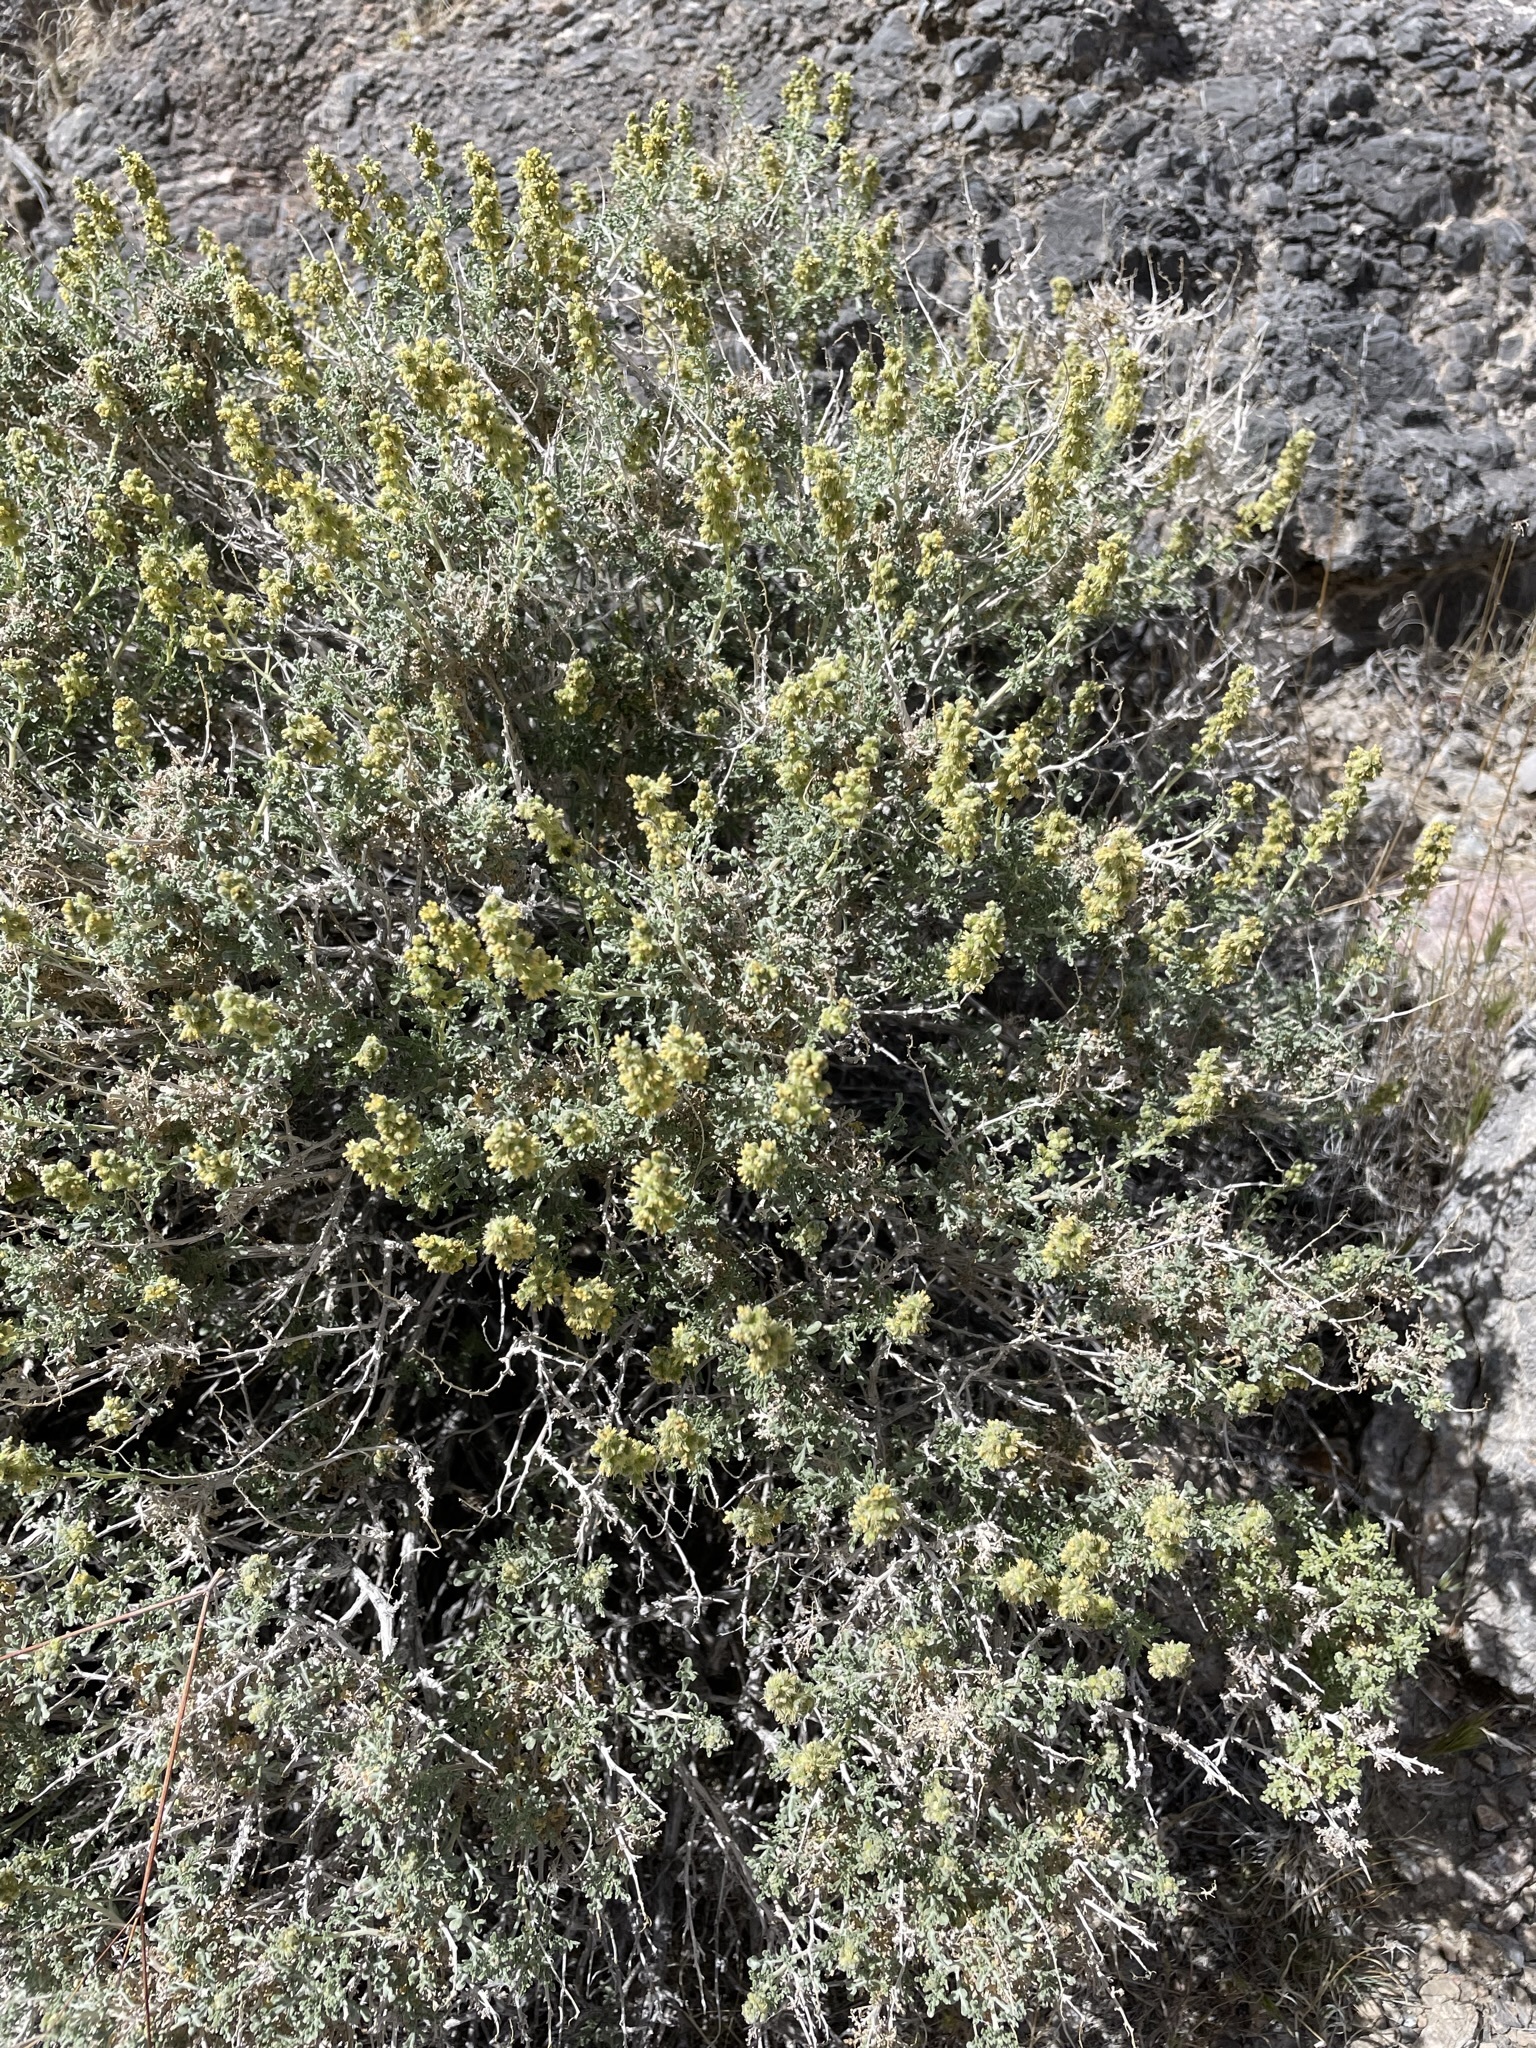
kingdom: Plantae
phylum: Tracheophyta
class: Magnoliopsida
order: Asterales
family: Asteraceae
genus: Ambrosia
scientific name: Ambrosia dumosa
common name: Bur-sage
